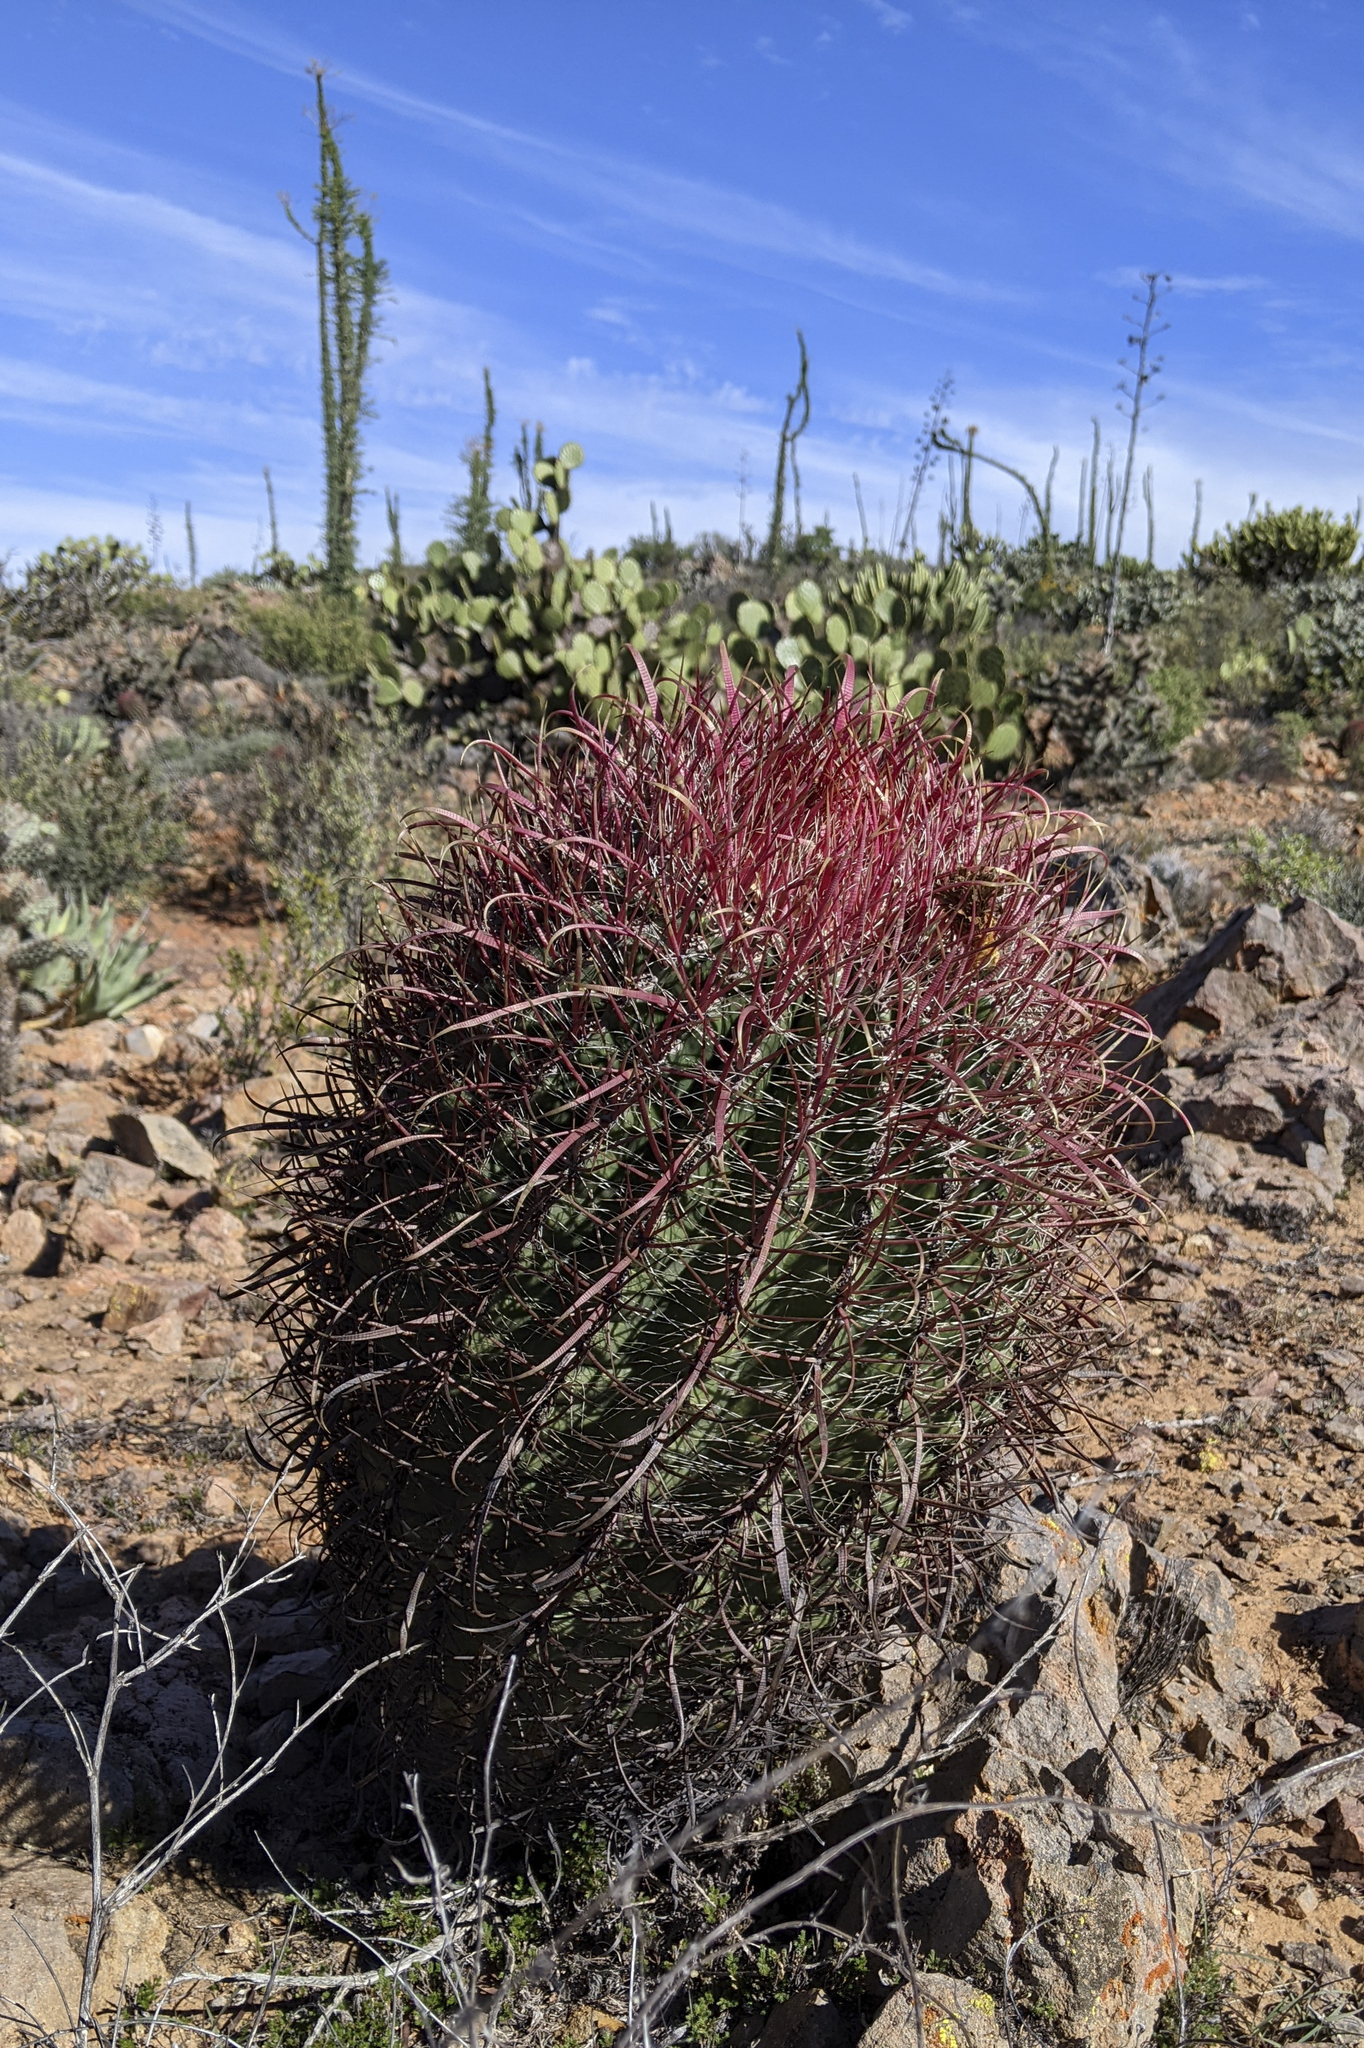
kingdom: Plantae
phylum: Tracheophyta
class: Magnoliopsida
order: Caryophyllales
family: Cactaceae
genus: Ferocactus
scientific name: Ferocactus gracilis
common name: Fire barrel cactus
